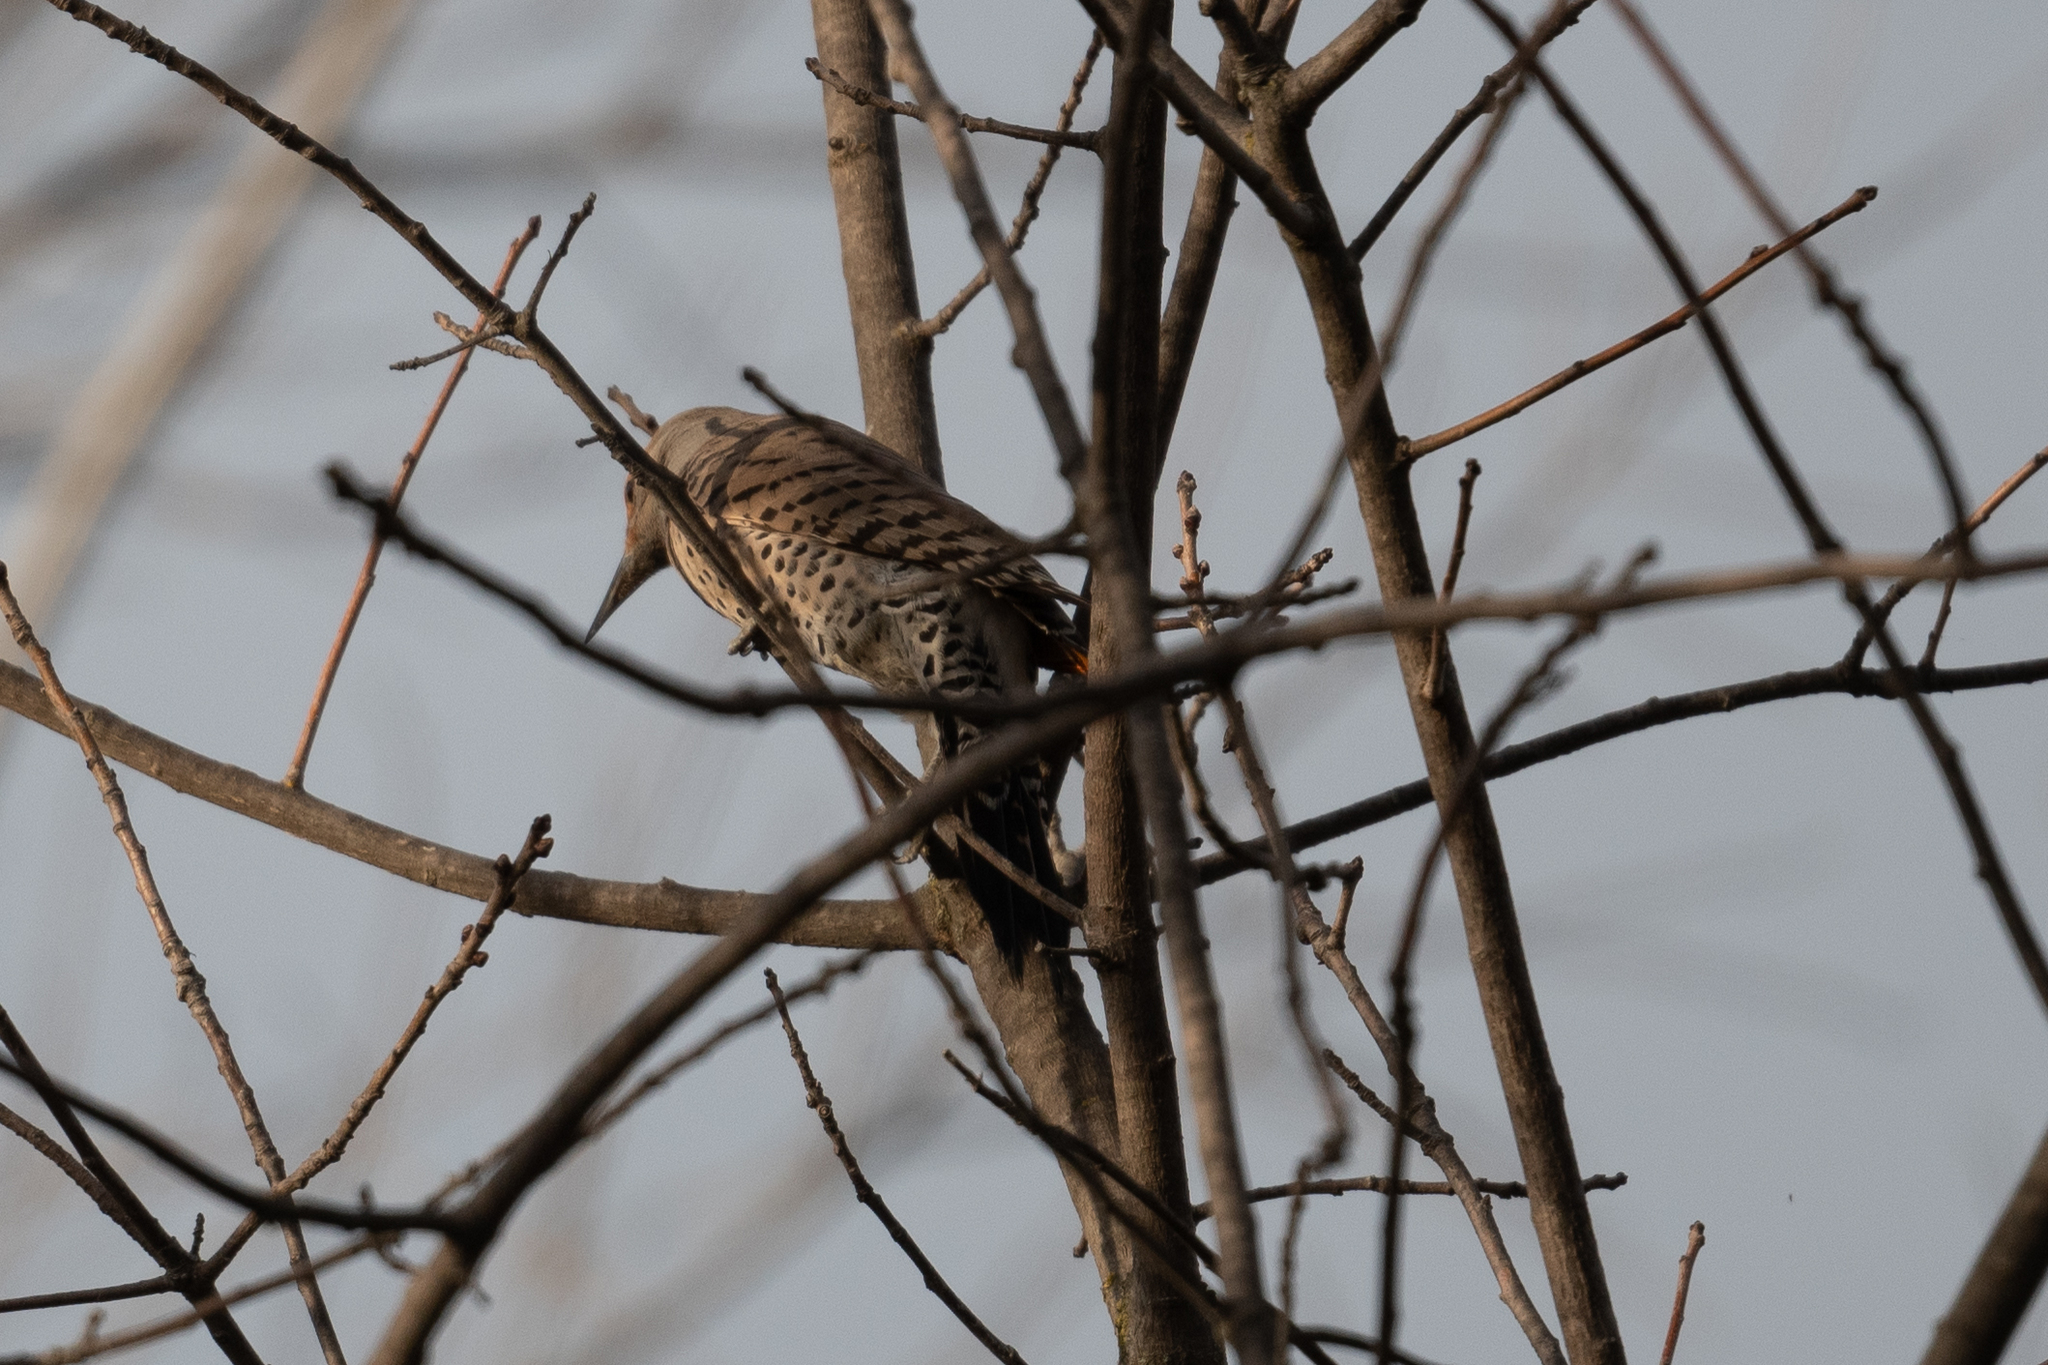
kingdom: Animalia
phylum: Chordata
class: Aves
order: Piciformes
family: Picidae
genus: Colaptes
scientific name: Colaptes auratus
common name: Northern flicker
